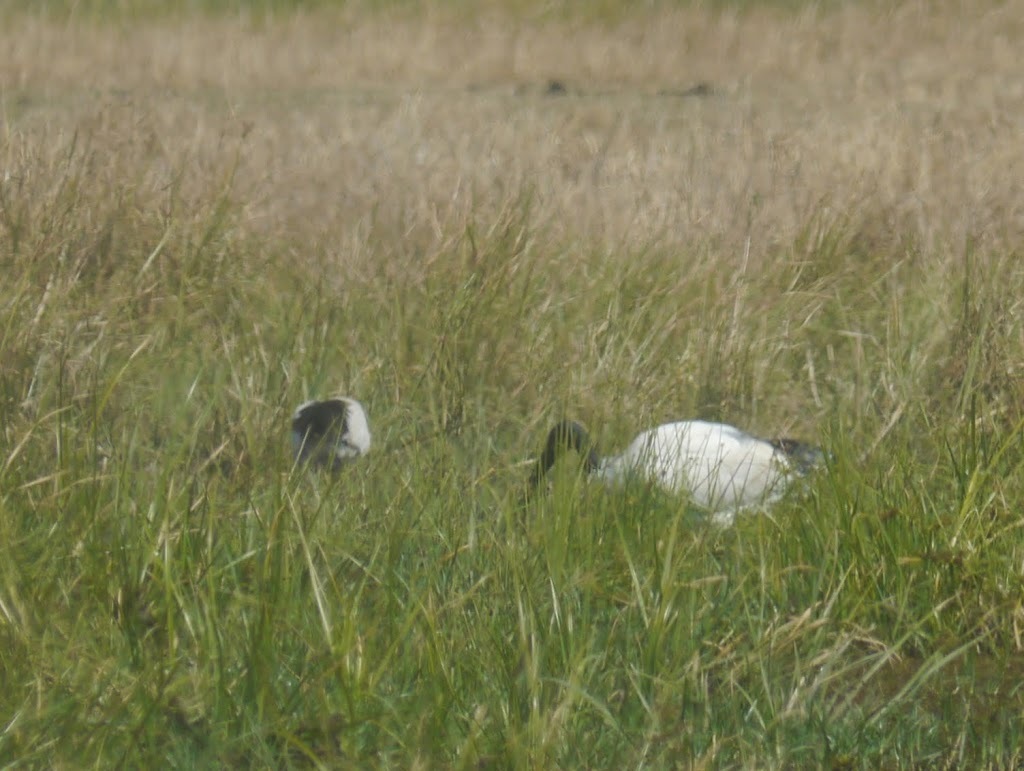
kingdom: Animalia
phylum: Chordata
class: Aves
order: Pelecaniformes
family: Threskiornithidae
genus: Threskiornis
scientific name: Threskiornis aethiopicus
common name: Sacred ibis
